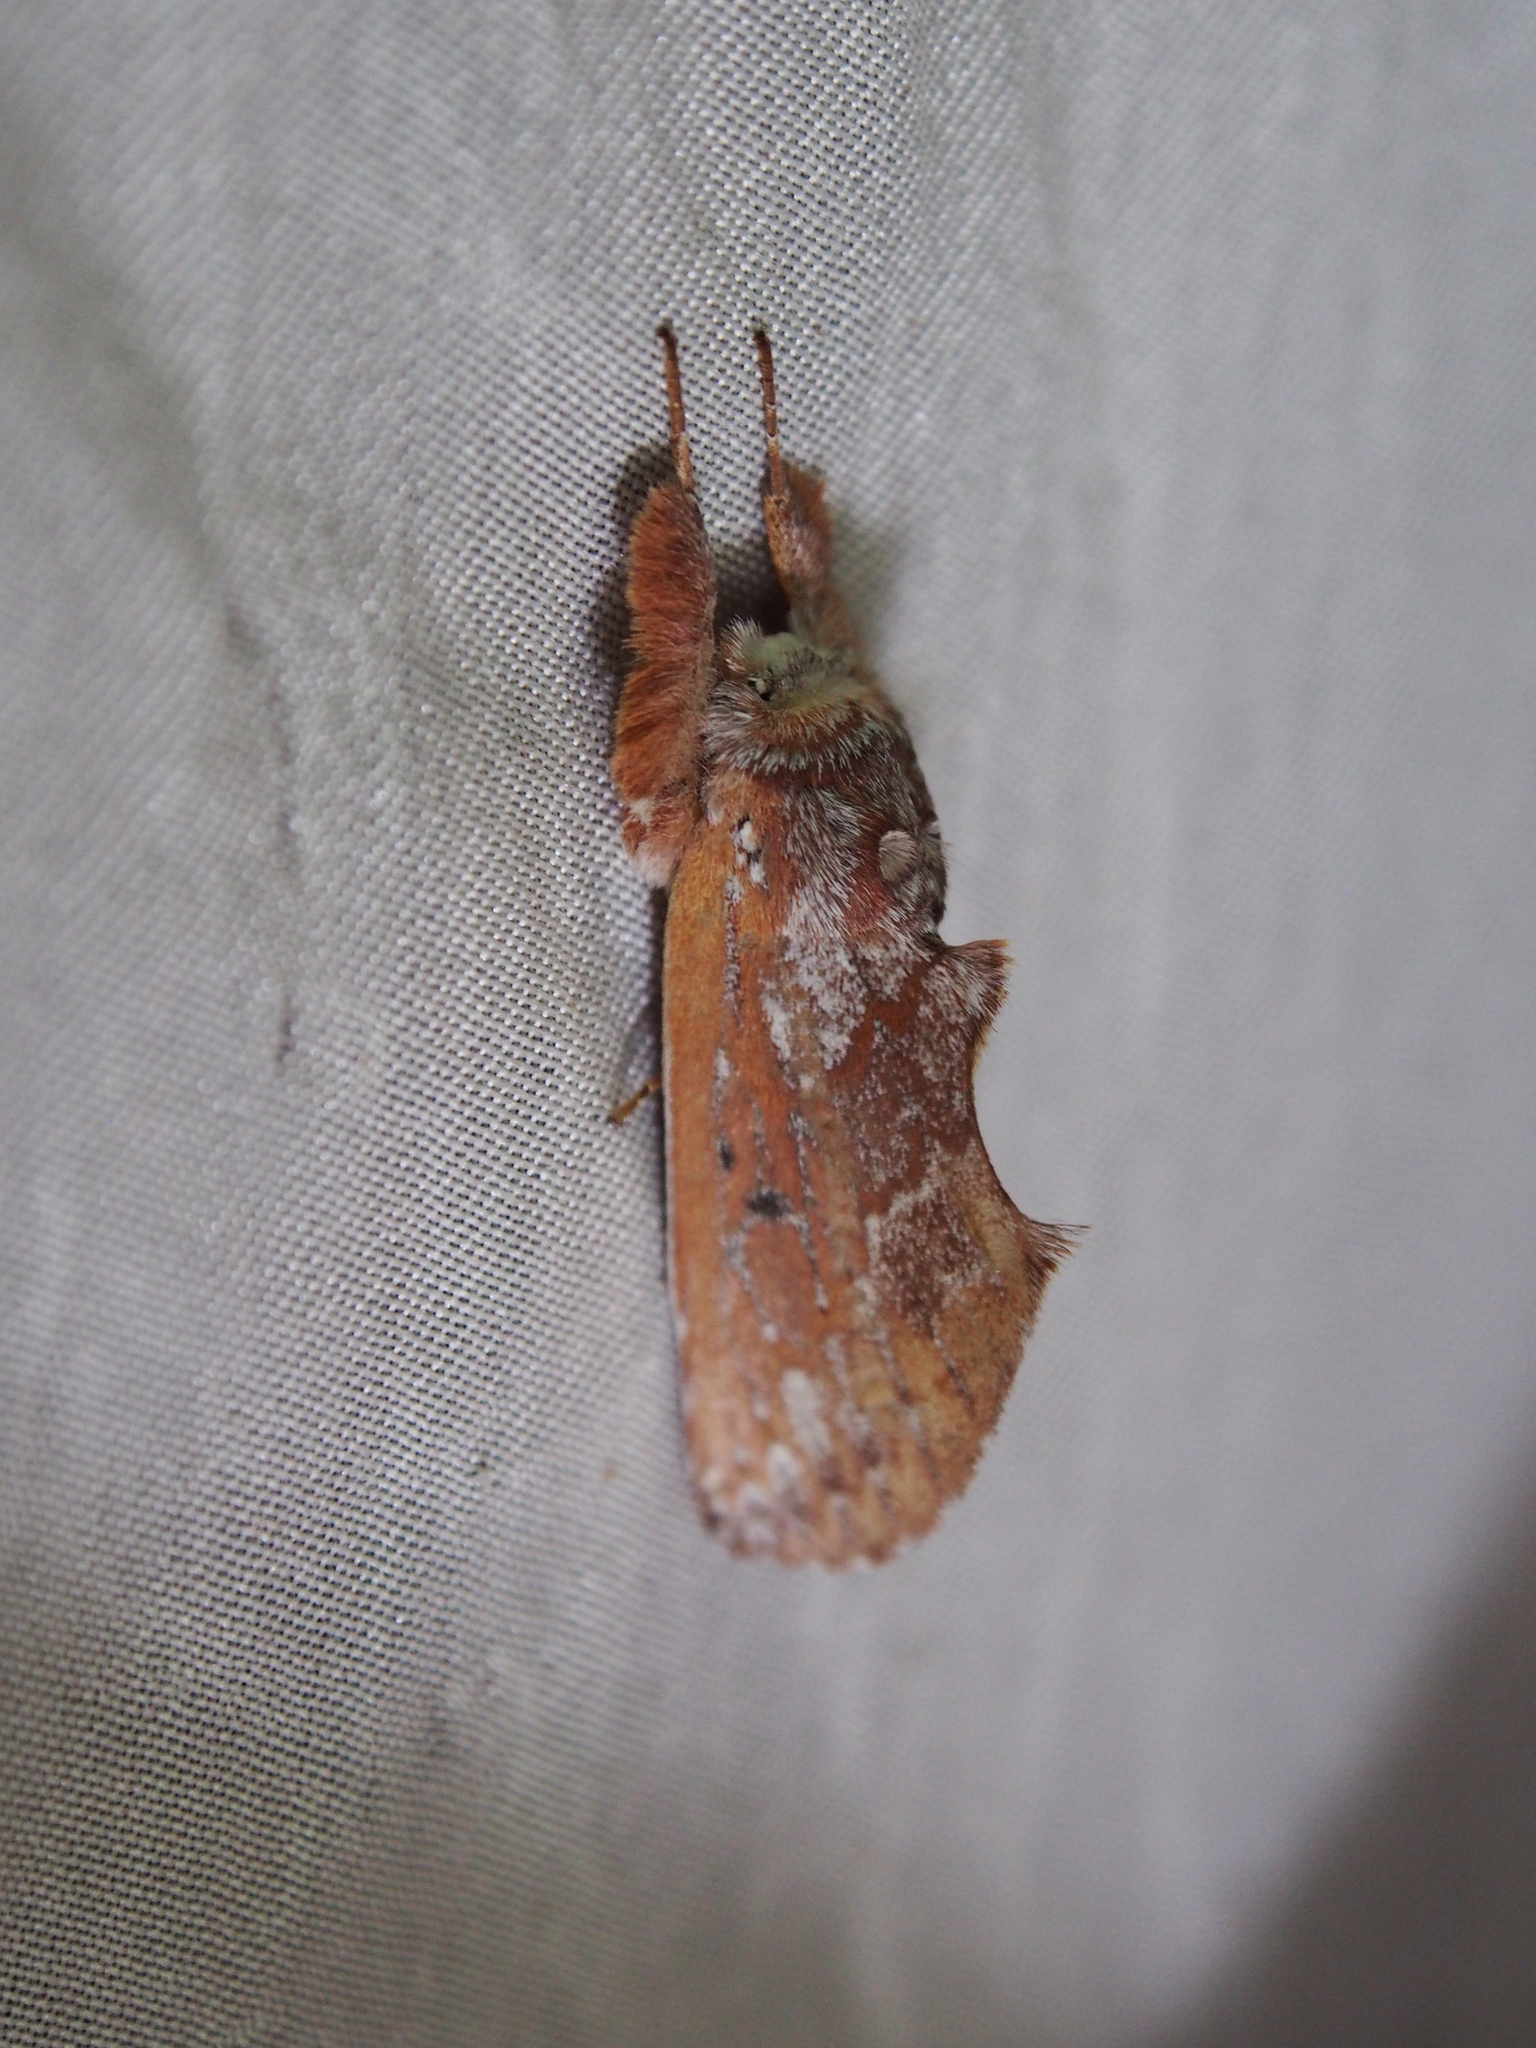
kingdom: Animalia
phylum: Arthropoda
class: Insecta
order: Lepidoptera
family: Notodontidae
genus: Hemiceras
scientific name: Hemiceras sparsipennis
